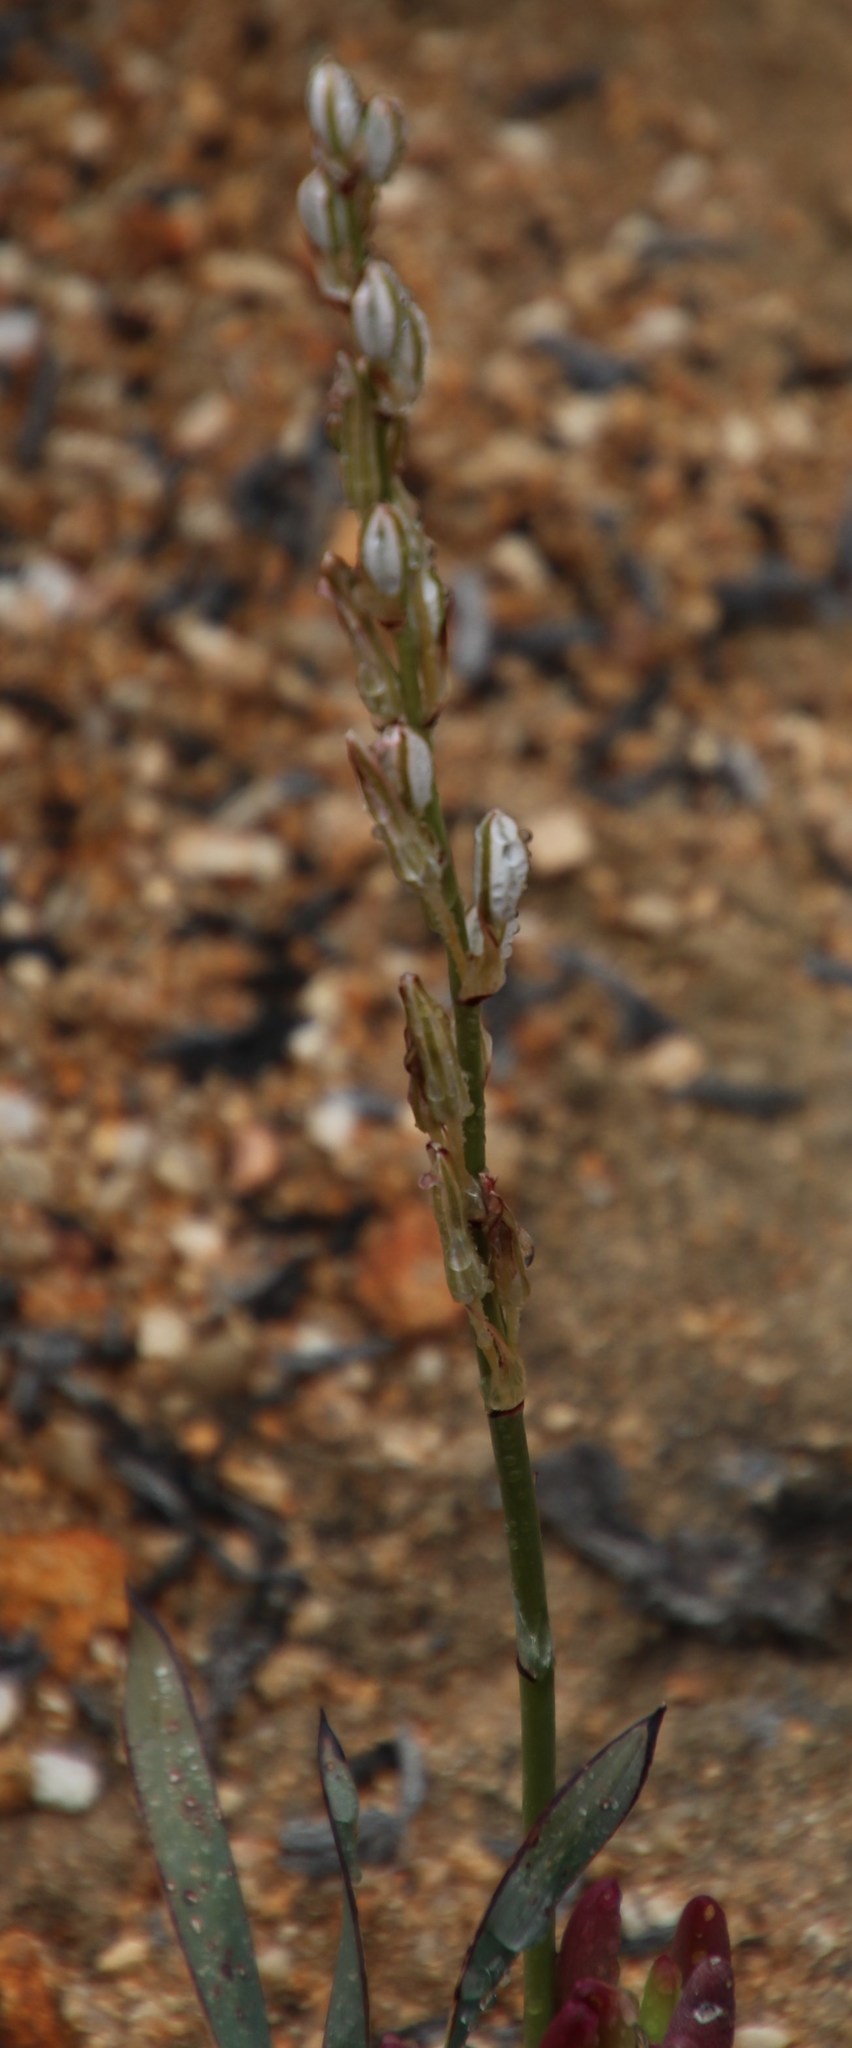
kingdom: Plantae
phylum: Tracheophyta
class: Liliopsida
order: Asparagales
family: Asparagaceae
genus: Chlorophytum
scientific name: Chlorophytum crassinerve
